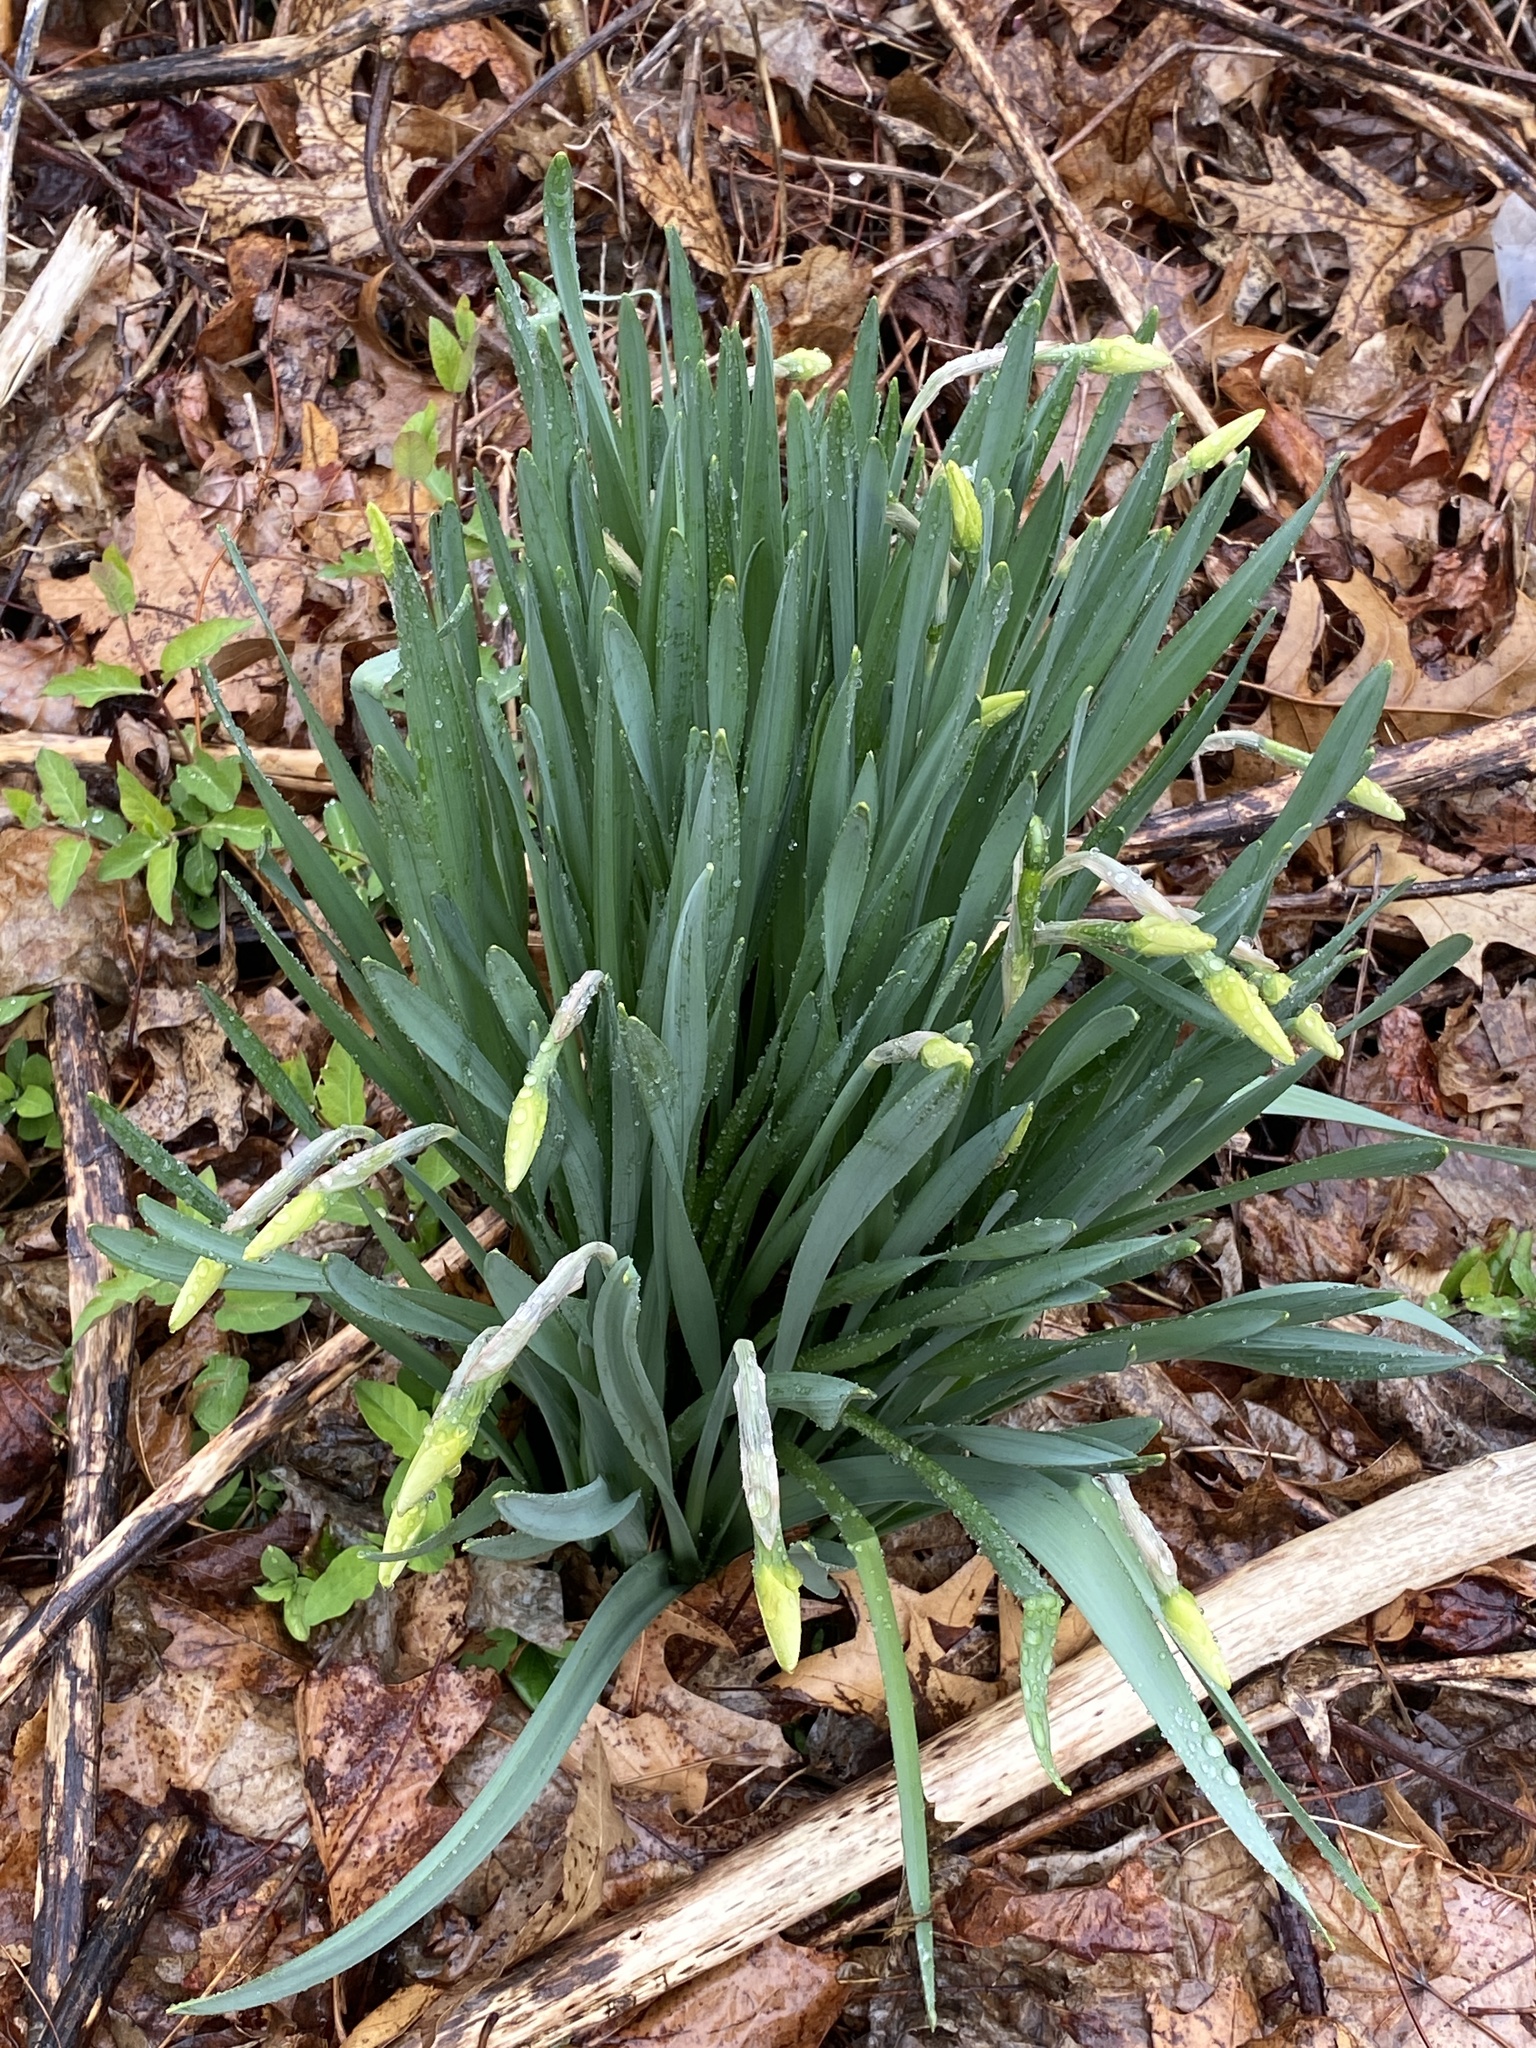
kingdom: Plantae
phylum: Tracheophyta
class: Liliopsida
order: Asparagales
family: Amaryllidaceae
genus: Narcissus
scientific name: Narcissus
